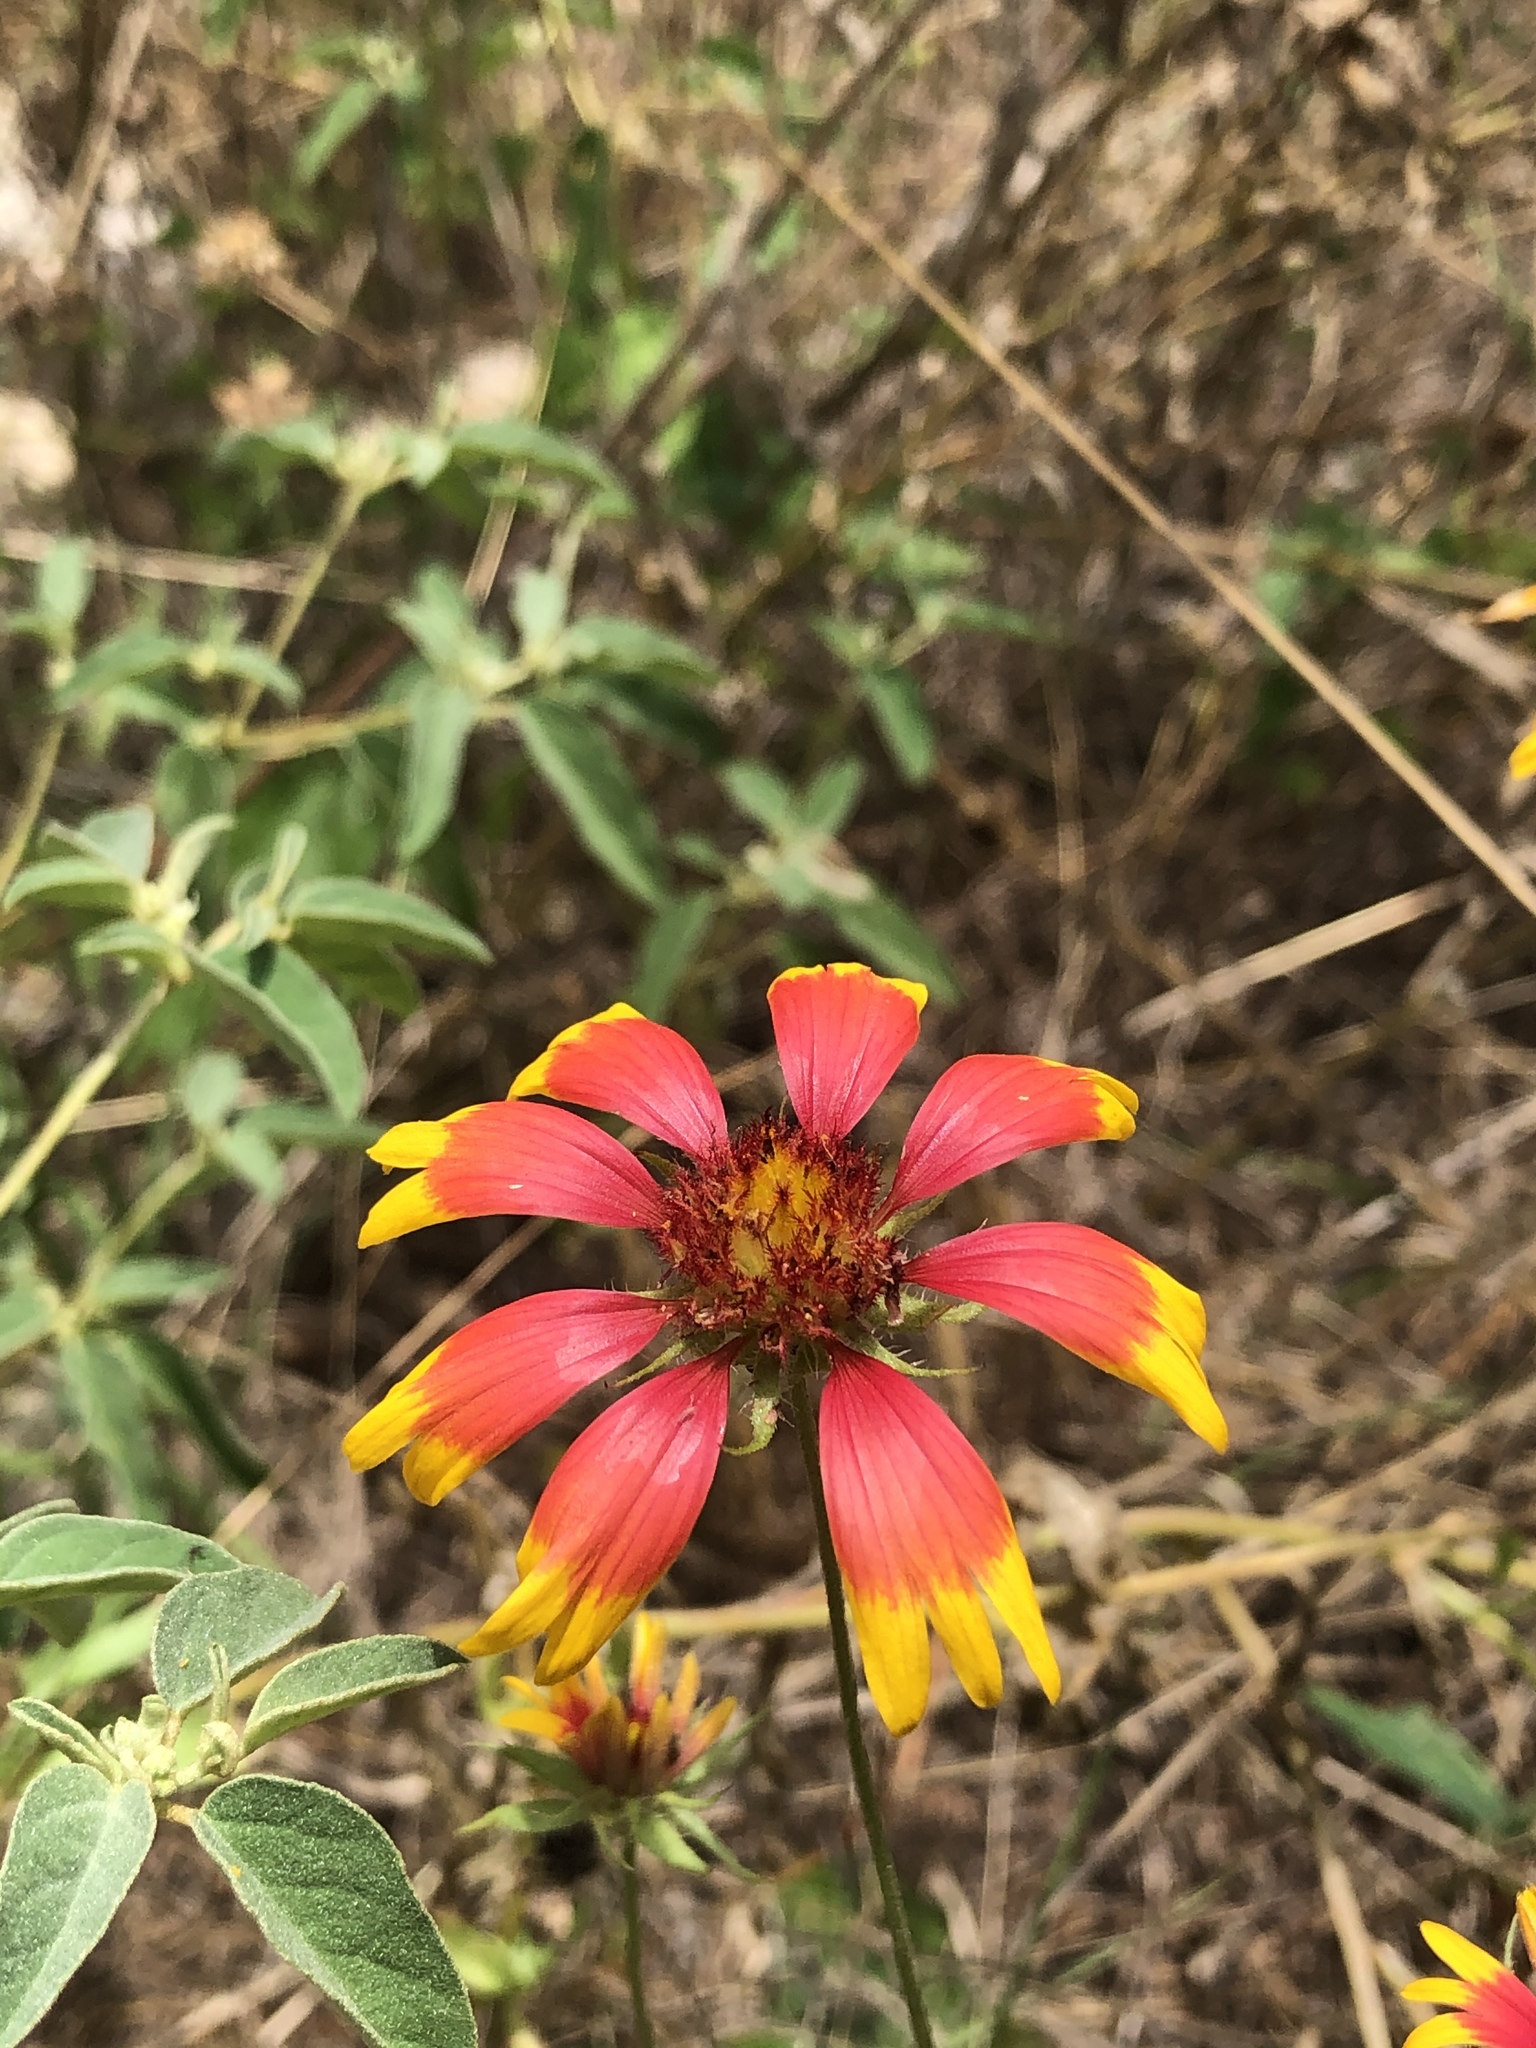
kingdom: Plantae
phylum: Tracheophyta
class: Magnoliopsida
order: Asterales
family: Asteraceae
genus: Gaillardia
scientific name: Gaillardia pulchella
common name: Firewheel
